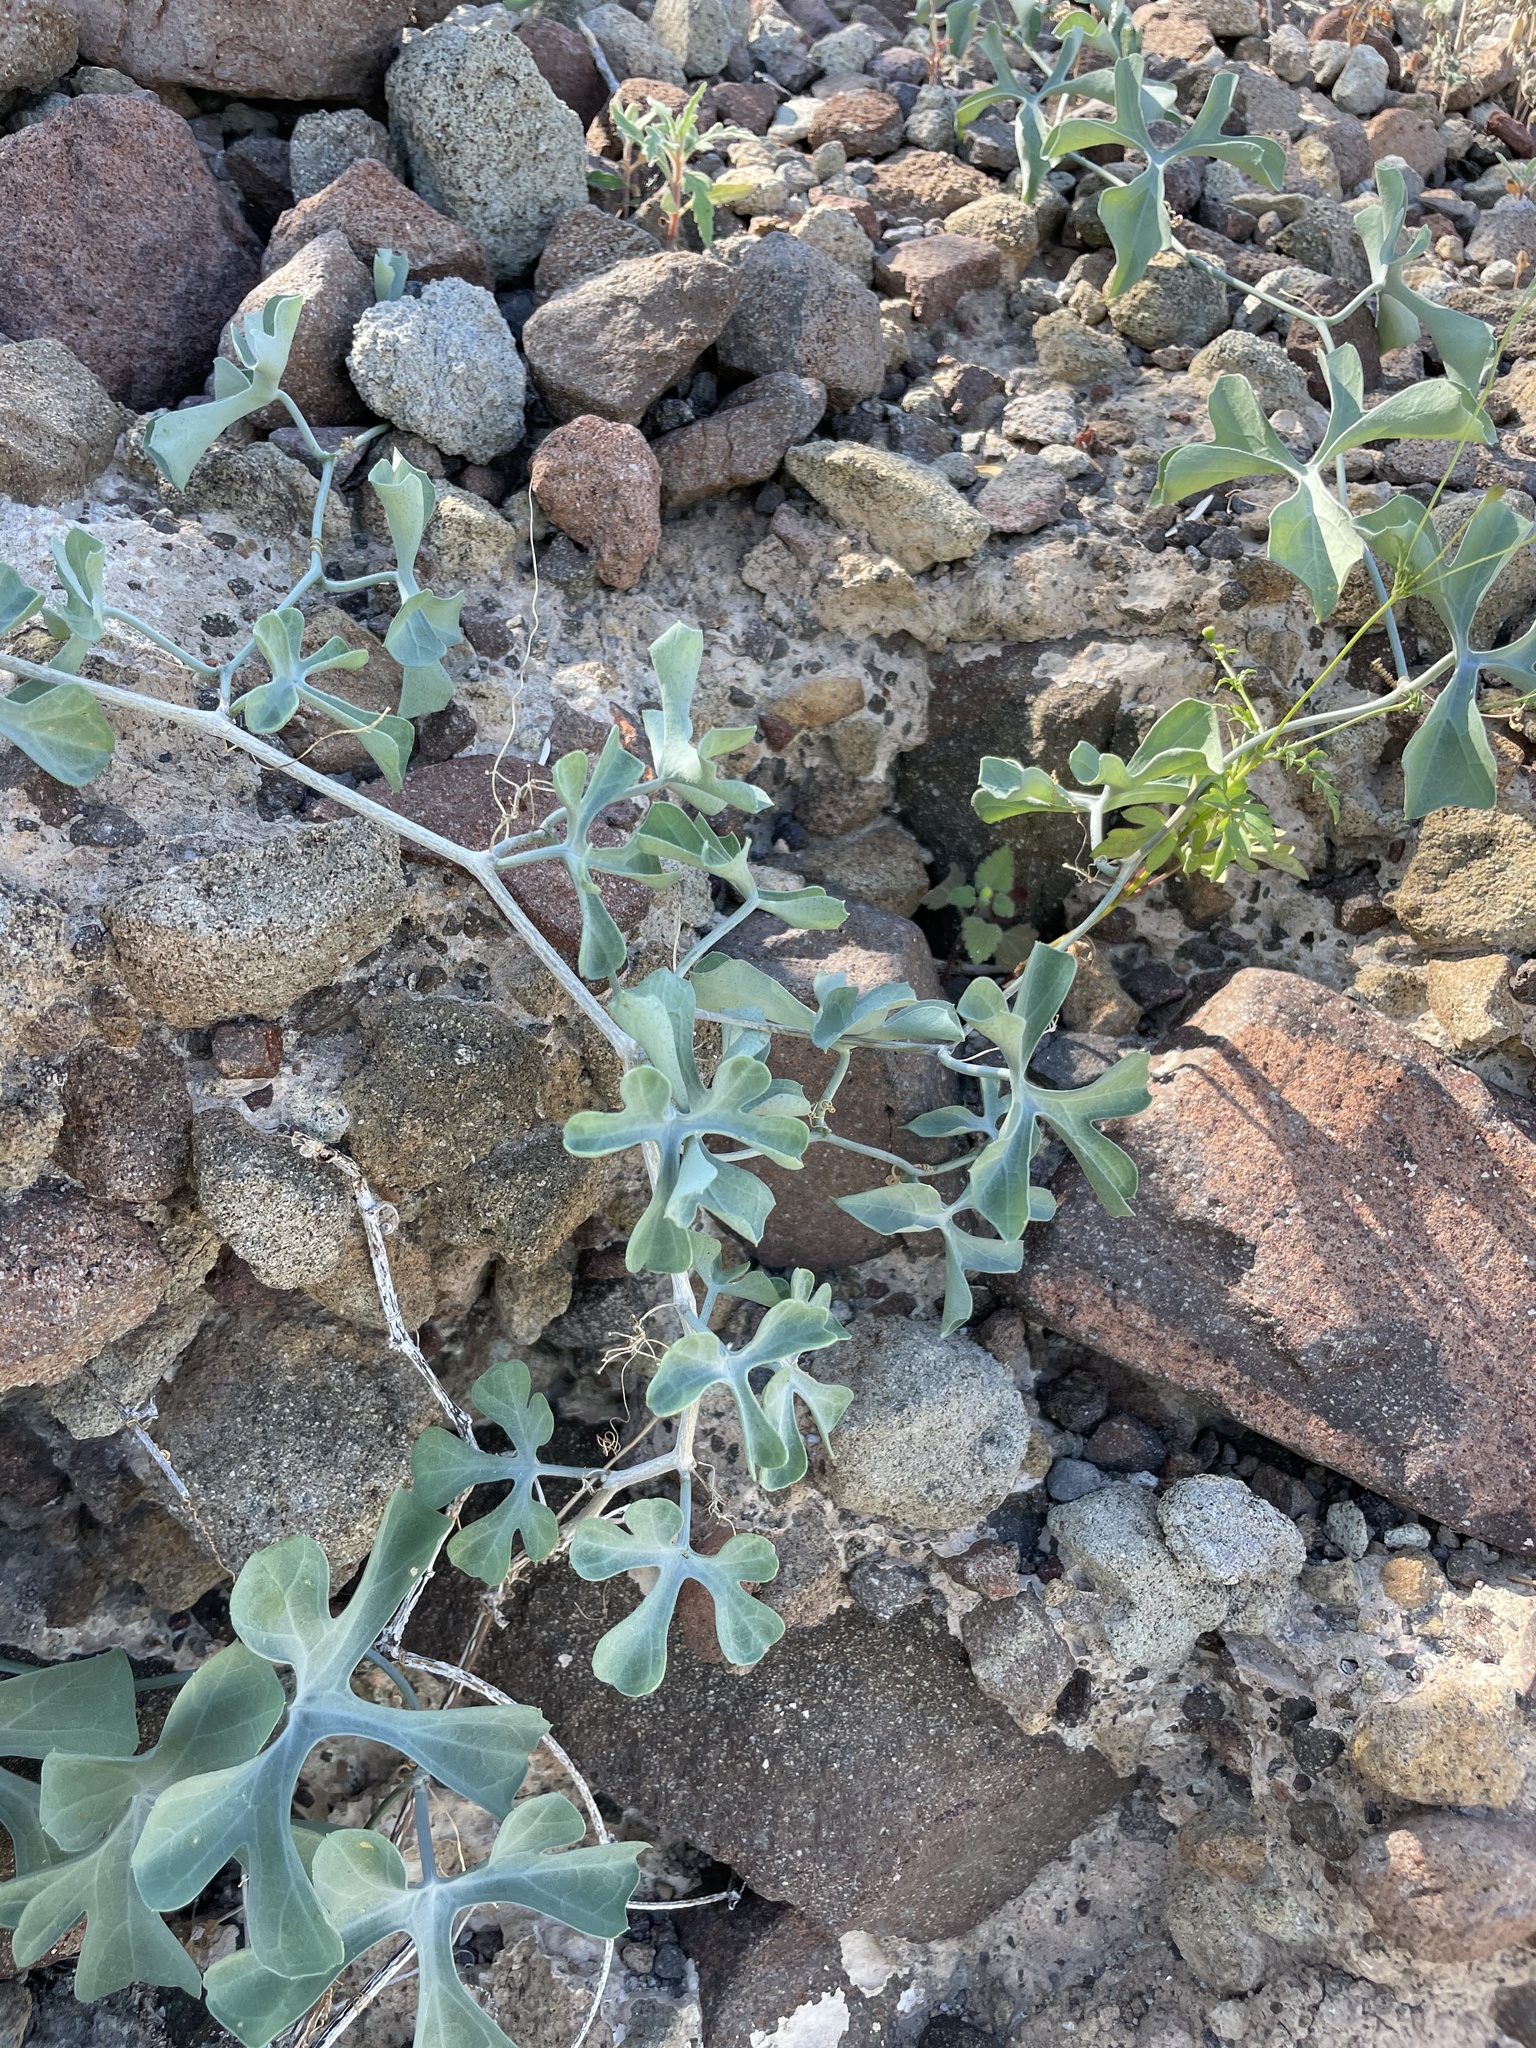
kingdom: Plantae
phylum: Tracheophyta
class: Magnoliopsida
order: Cucurbitales
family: Cucurbitaceae
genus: Ibervillea
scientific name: Ibervillea sonorae
